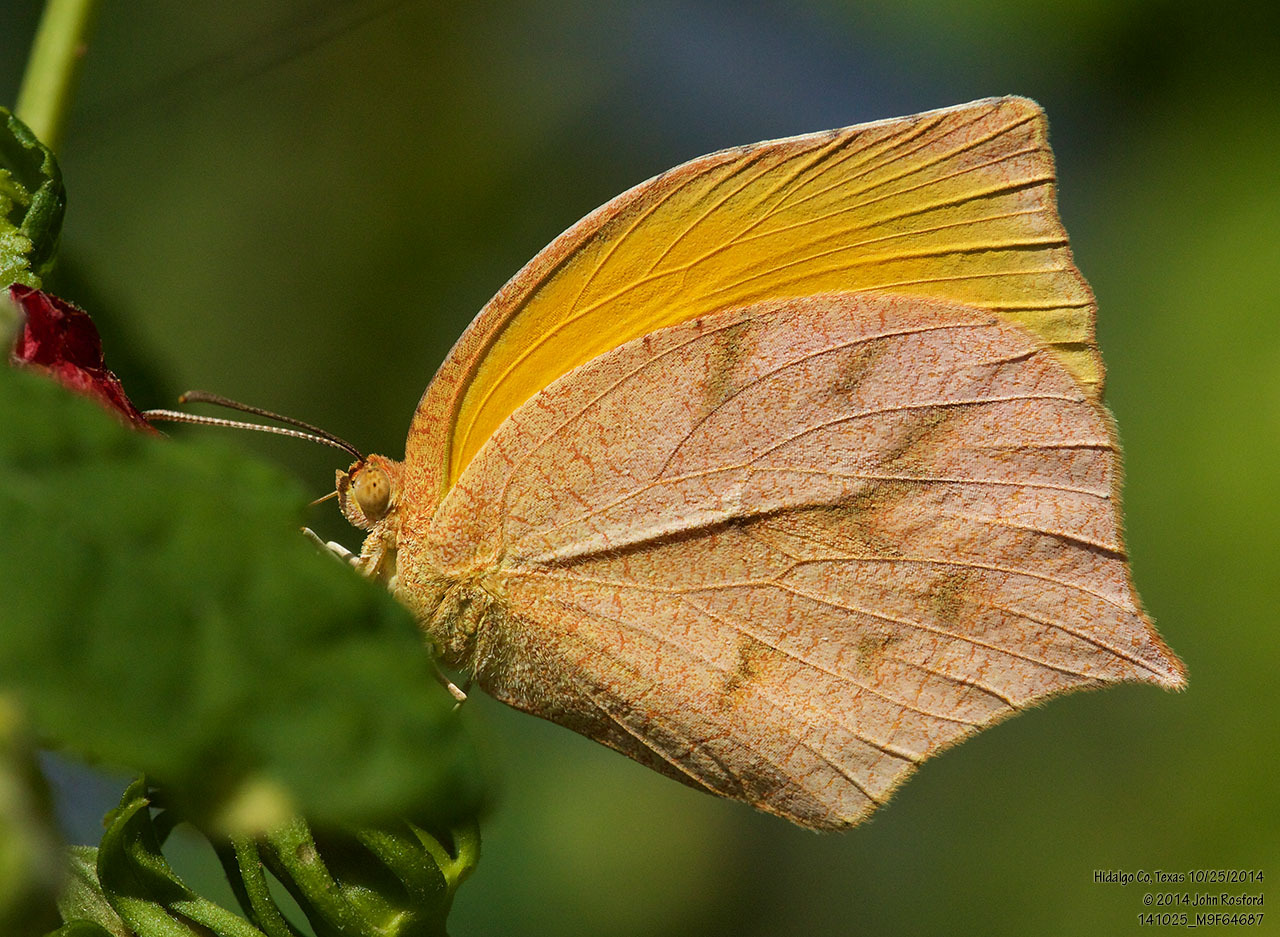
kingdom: Animalia
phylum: Arthropoda
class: Insecta
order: Lepidoptera
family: Pieridae
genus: Pyrisitia
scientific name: Pyrisitia proterpia
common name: Tailed orange
